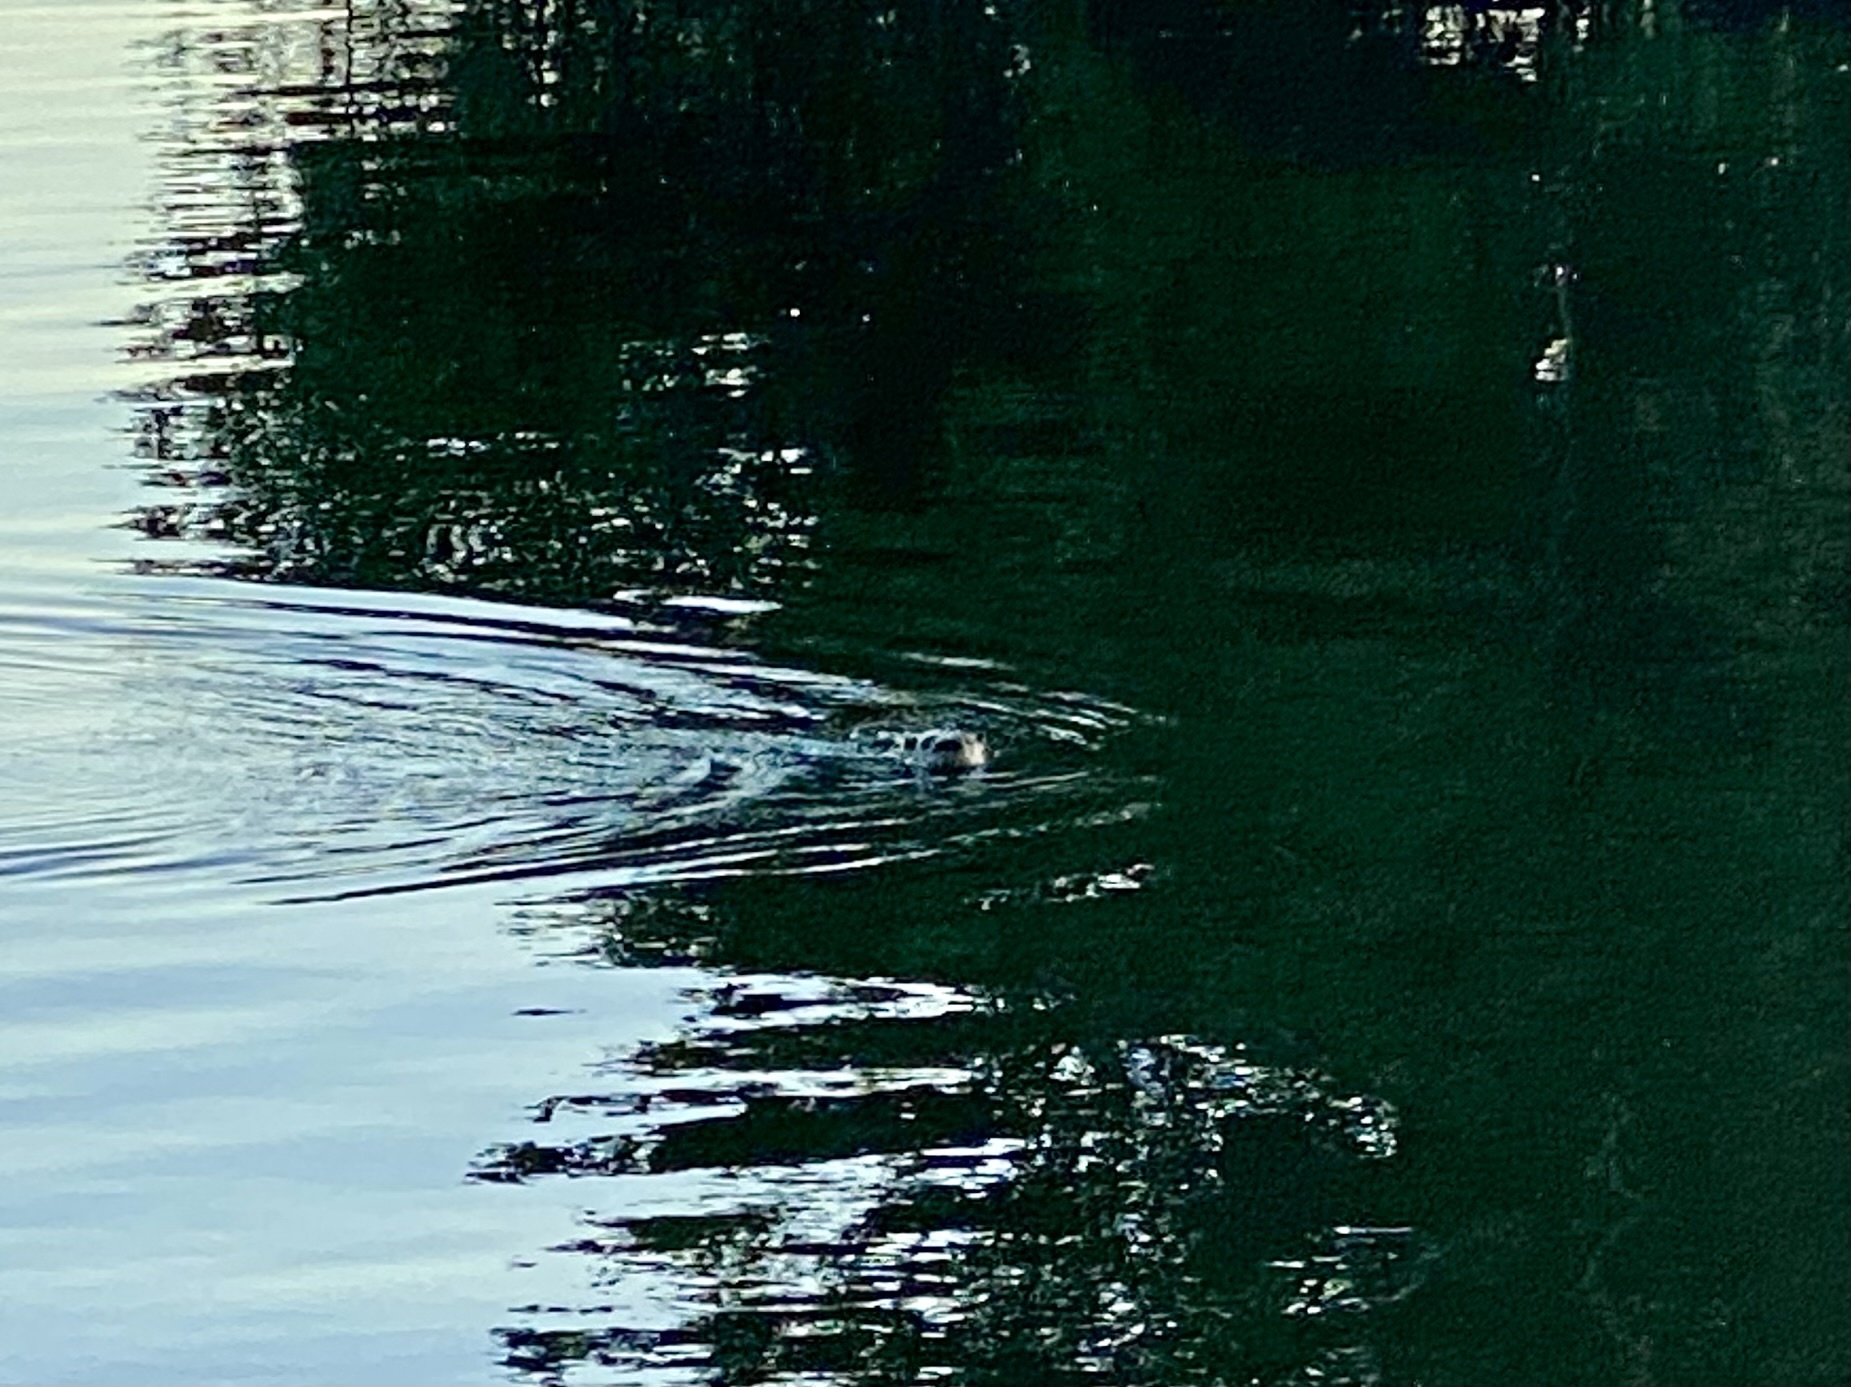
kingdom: Animalia
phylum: Chordata
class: Mammalia
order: Carnivora
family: Mustelidae
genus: Lontra
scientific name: Lontra canadensis
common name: North american river otter
